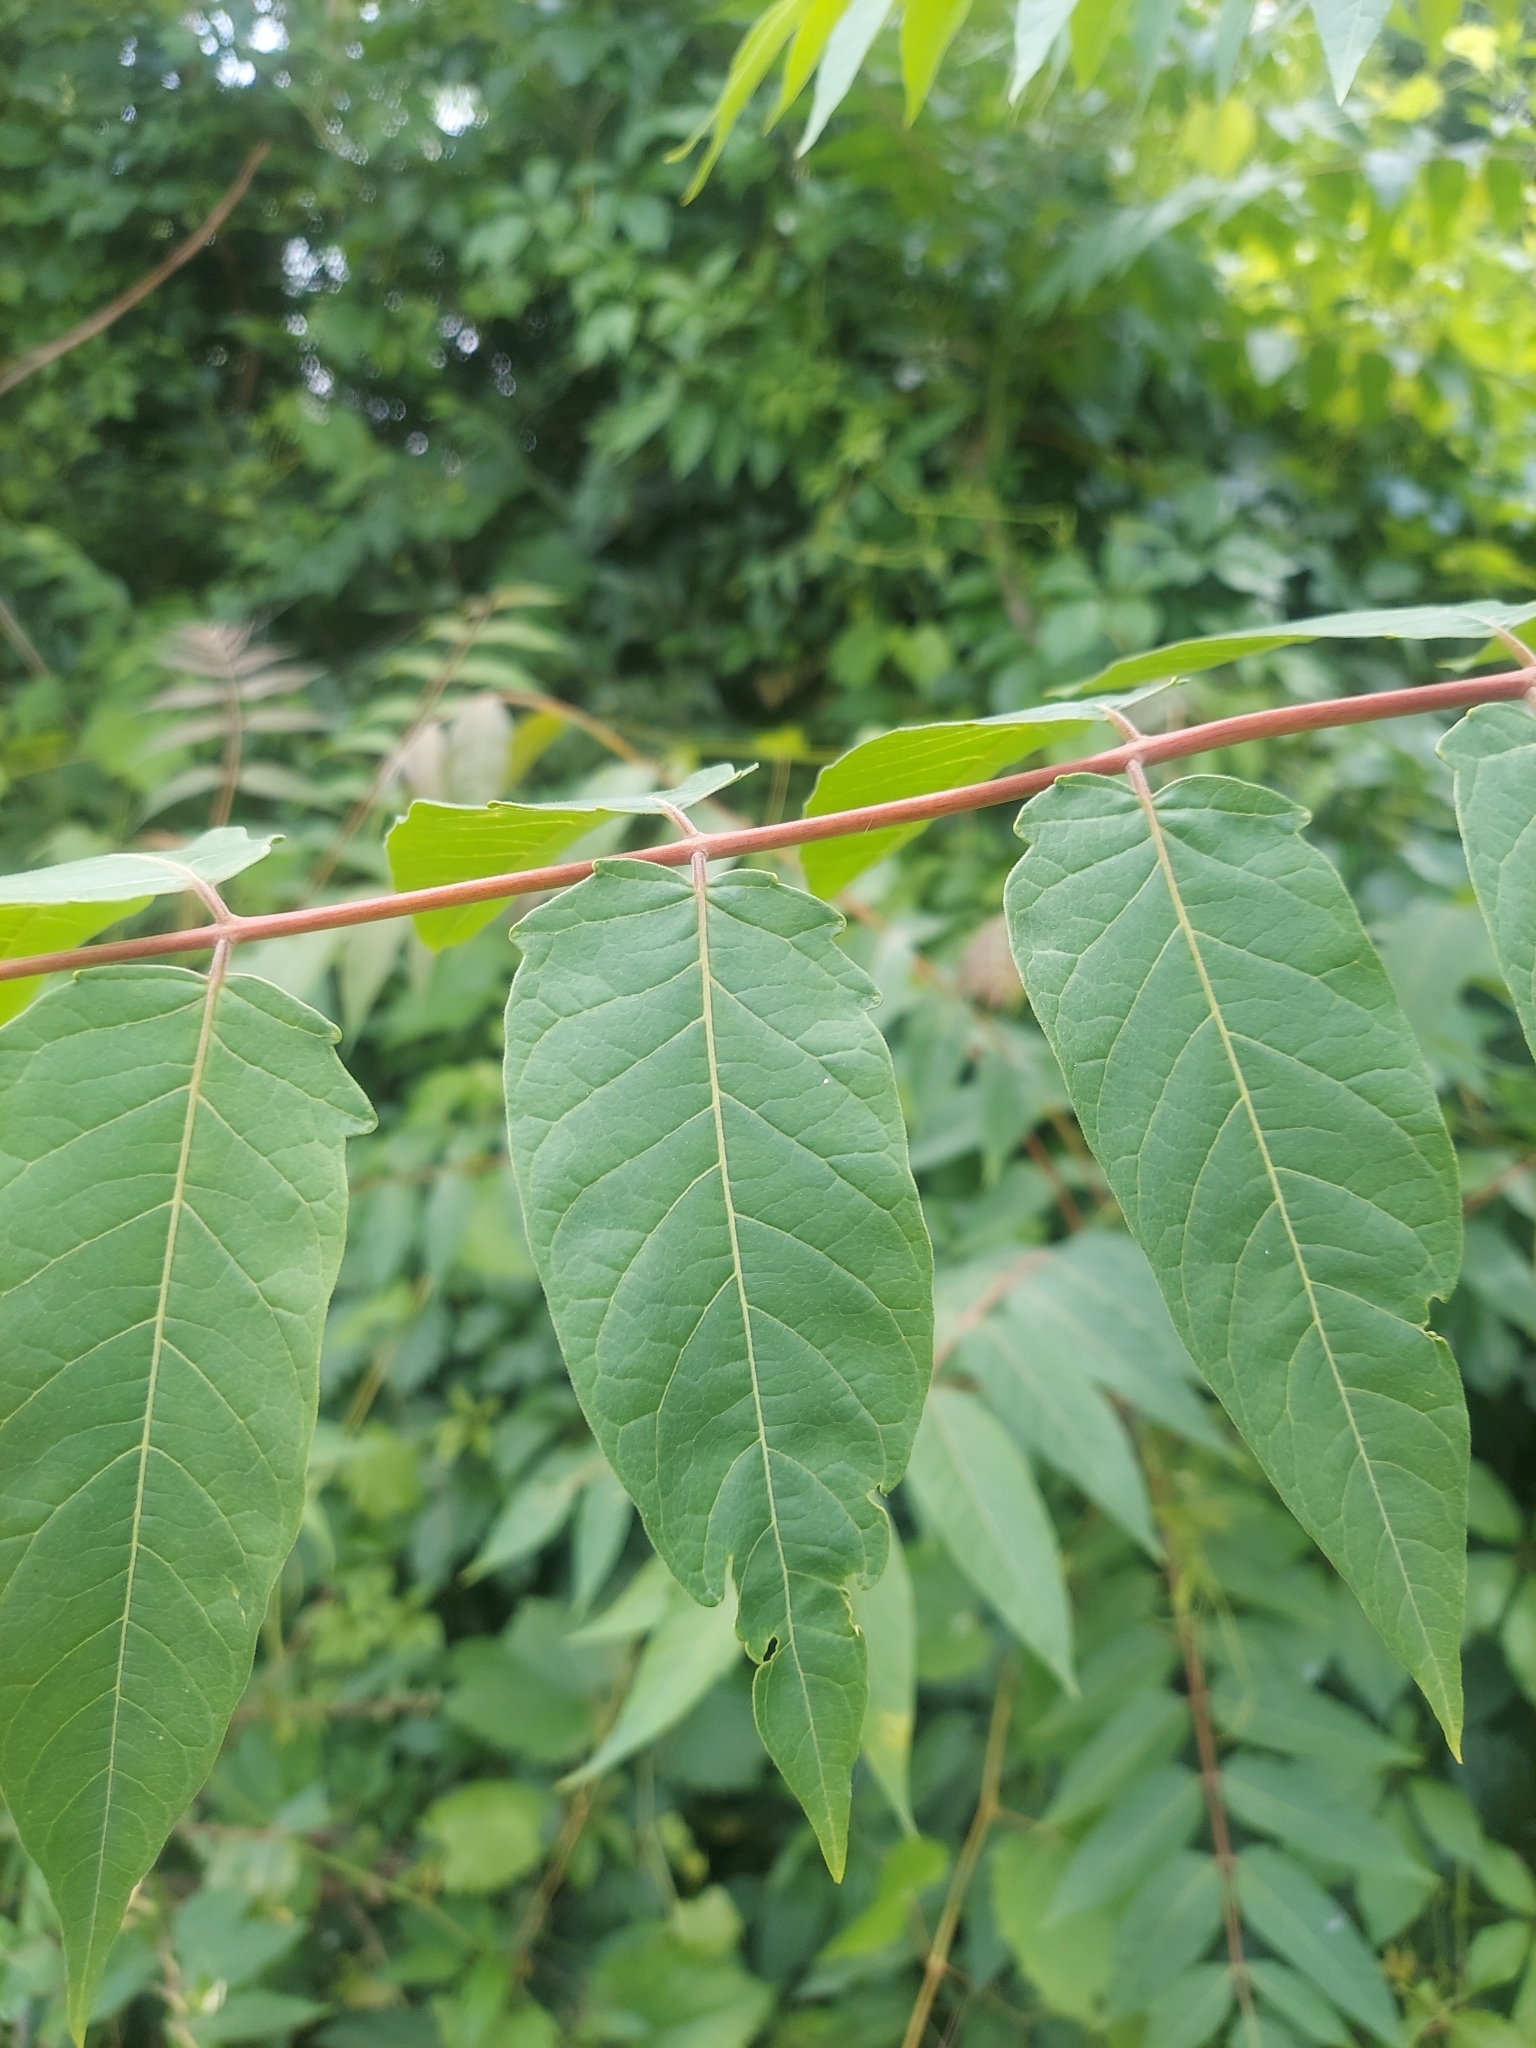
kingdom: Plantae
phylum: Tracheophyta
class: Magnoliopsida
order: Sapindales
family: Simaroubaceae
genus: Ailanthus
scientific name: Ailanthus altissima
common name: Tree-of-heaven
